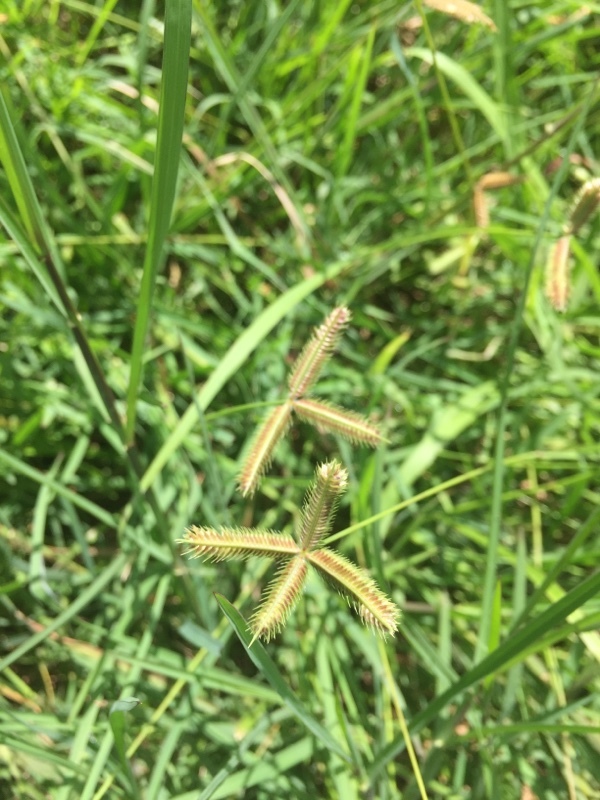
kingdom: Plantae
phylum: Tracheophyta
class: Liliopsida
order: Poales
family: Poaceae
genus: Dactyloctenium
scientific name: Dactyloctenium aegyptium
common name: Egyptian grass
